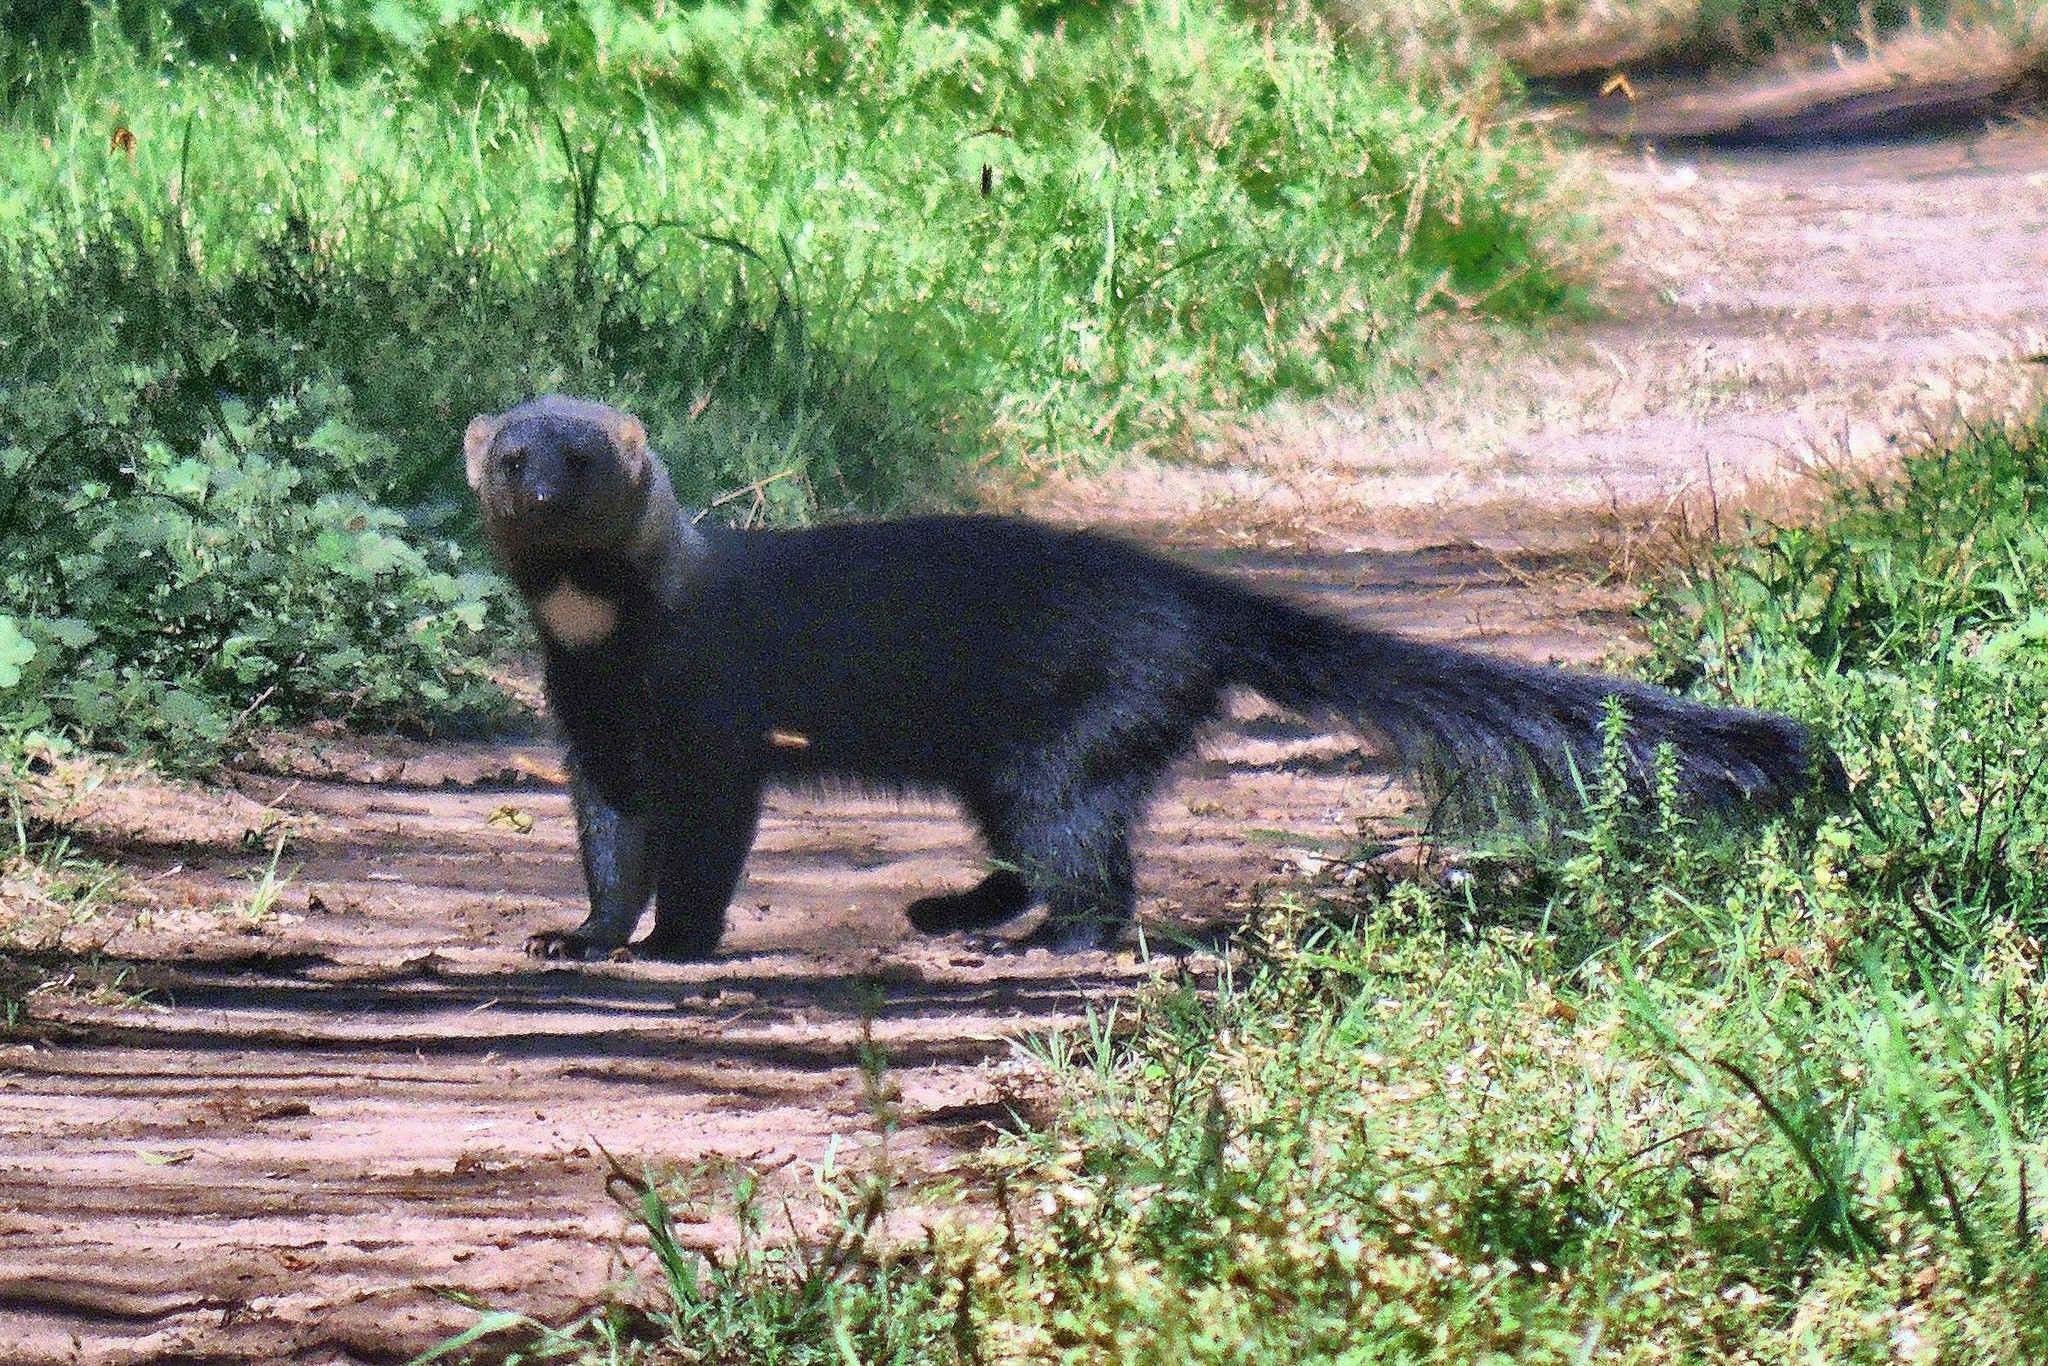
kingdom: Animalia
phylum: Chordata
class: Mammalia
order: Carnivora
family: Mustelidae
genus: Eira
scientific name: Eira barbara
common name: Tayra
